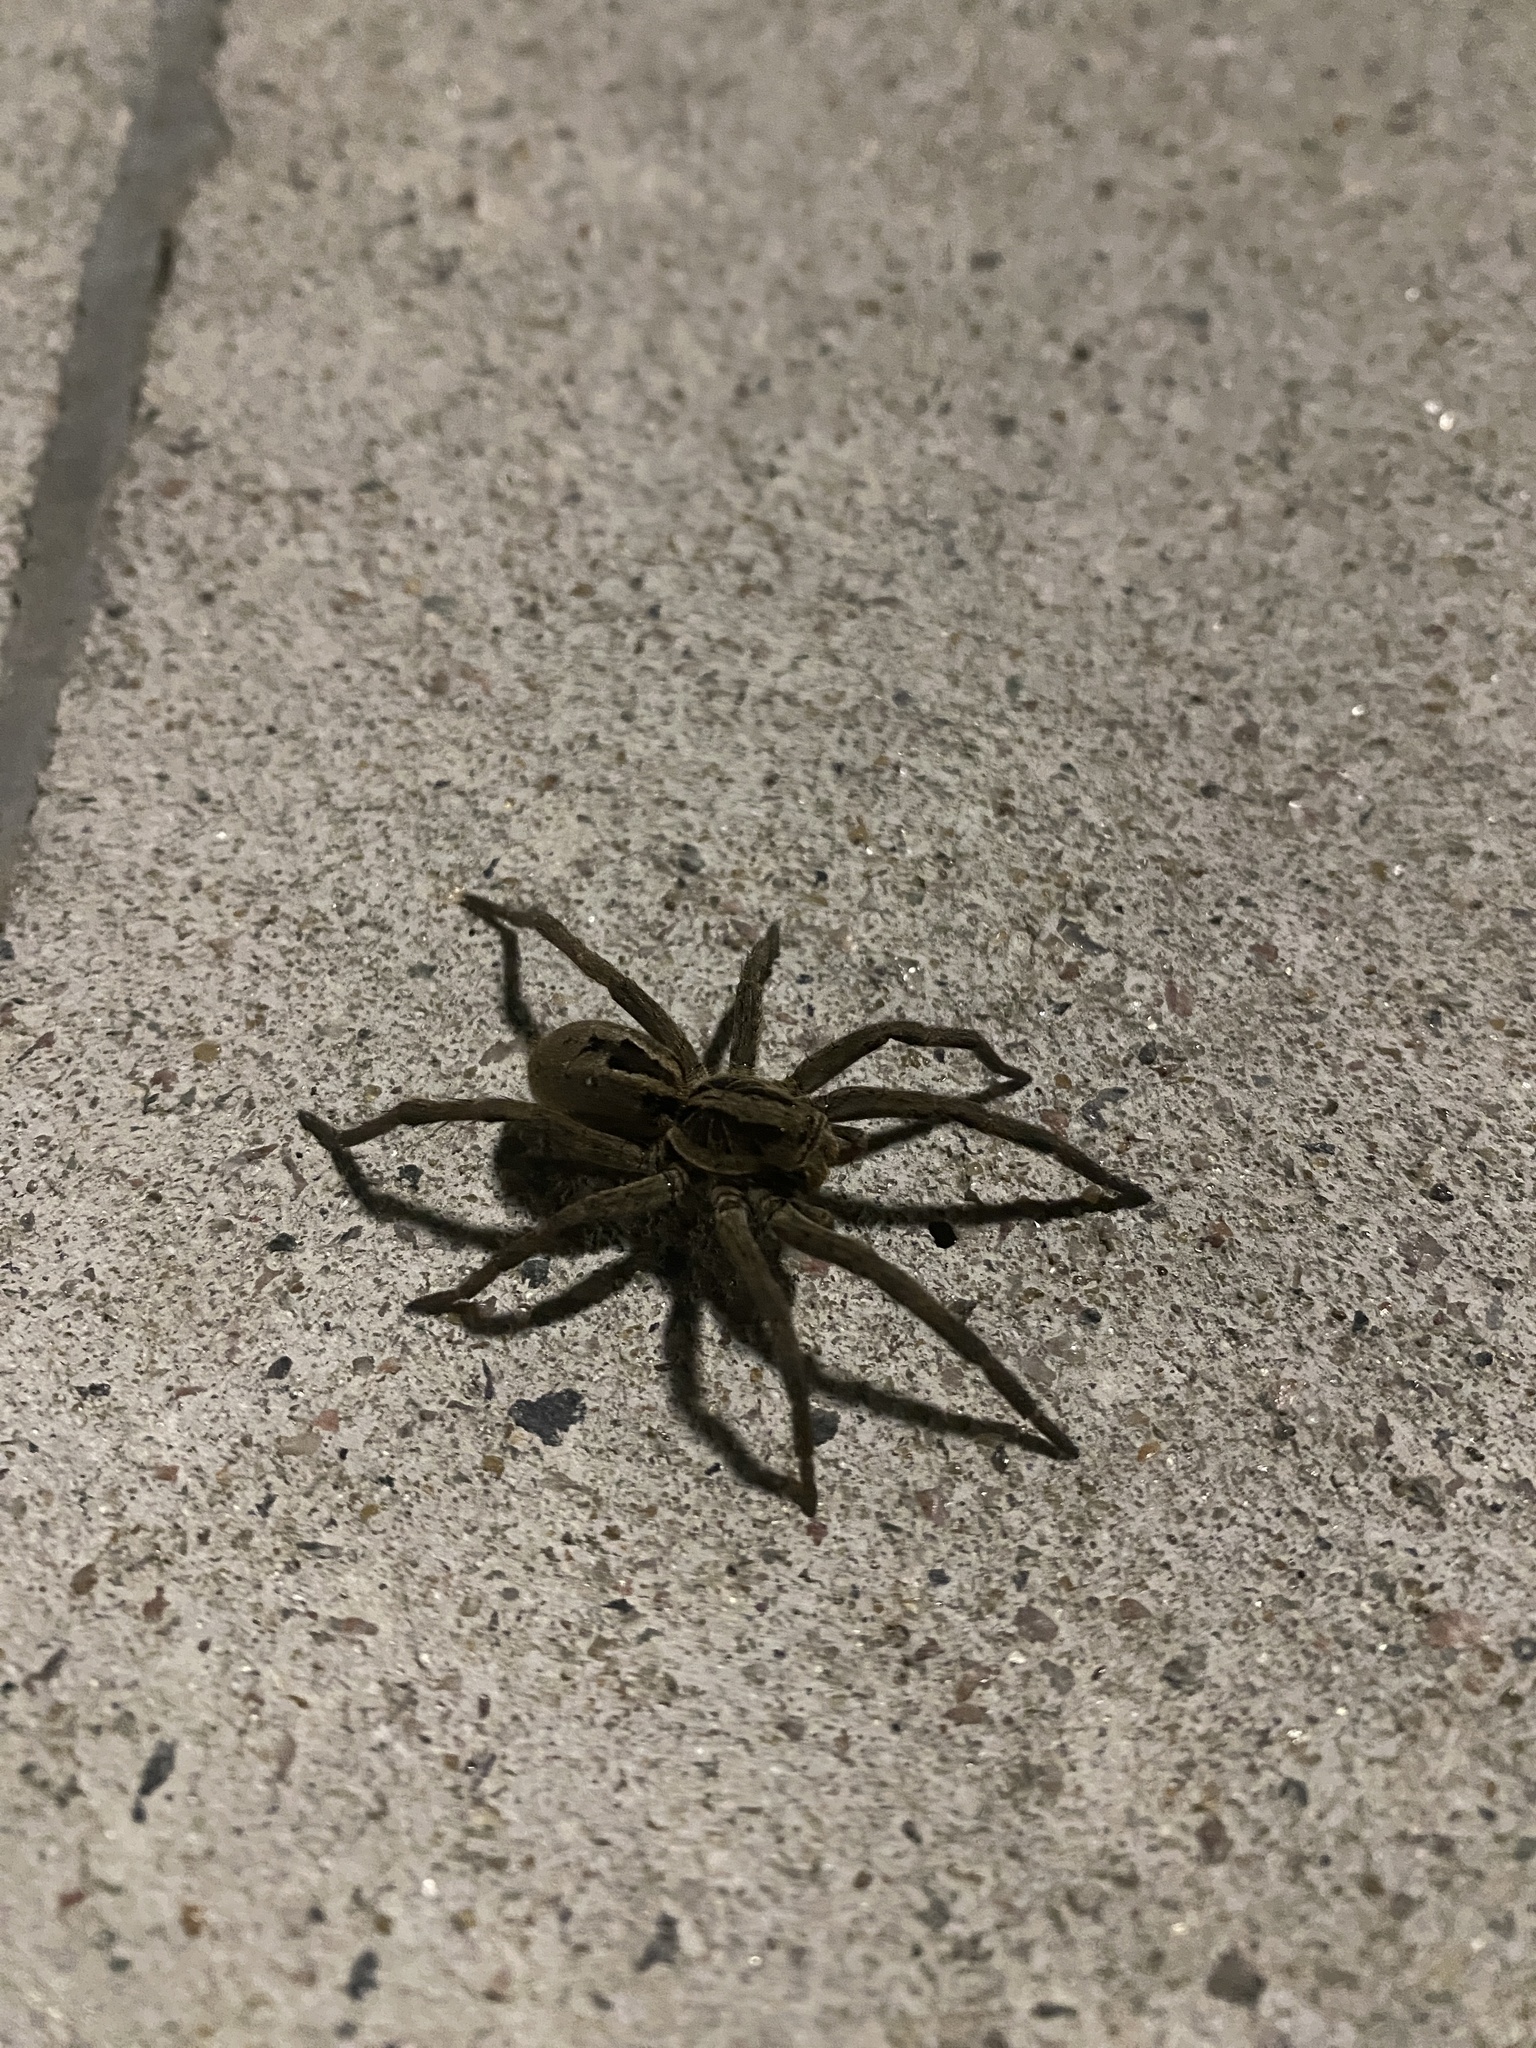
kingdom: Animalia
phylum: Arthropoda
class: Arachnida
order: Araneae
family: Lycosidae
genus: Lycosa
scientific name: Lycosa erythrognatha
